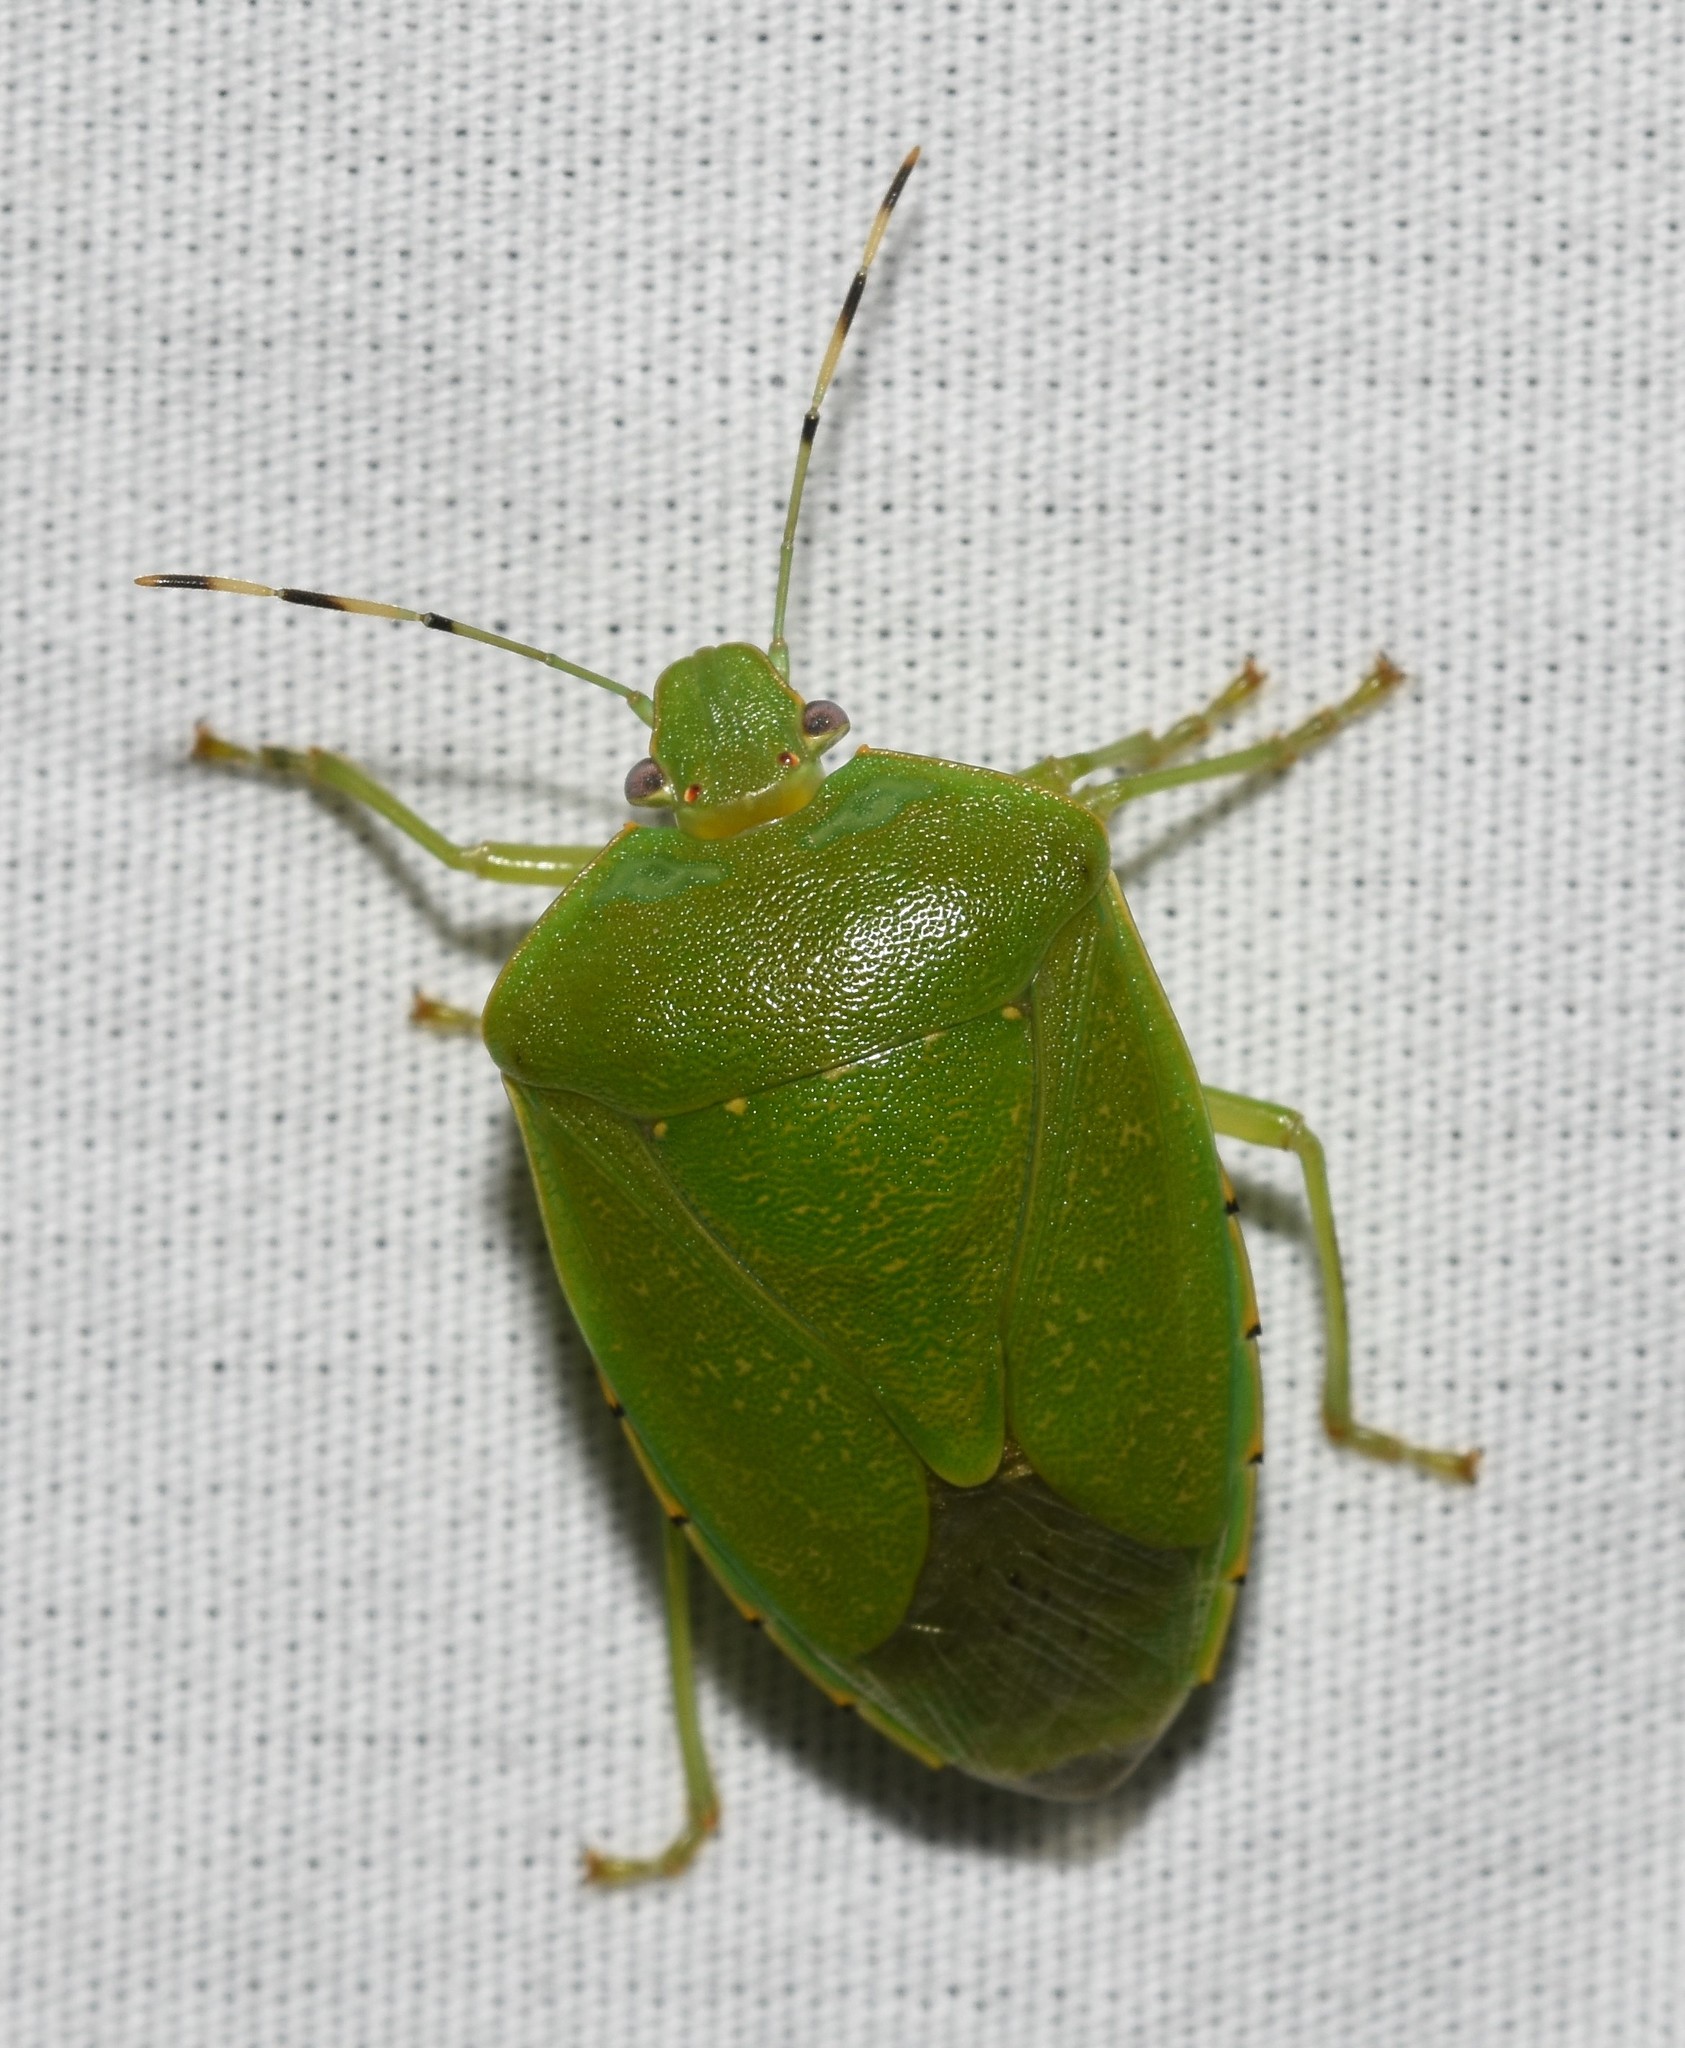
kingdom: Animalia
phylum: Arthropoda
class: Insecta
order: Hemiptera
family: Pentatomidae
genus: Chinavia
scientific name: Chinavia hilaris
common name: Green stink bug
